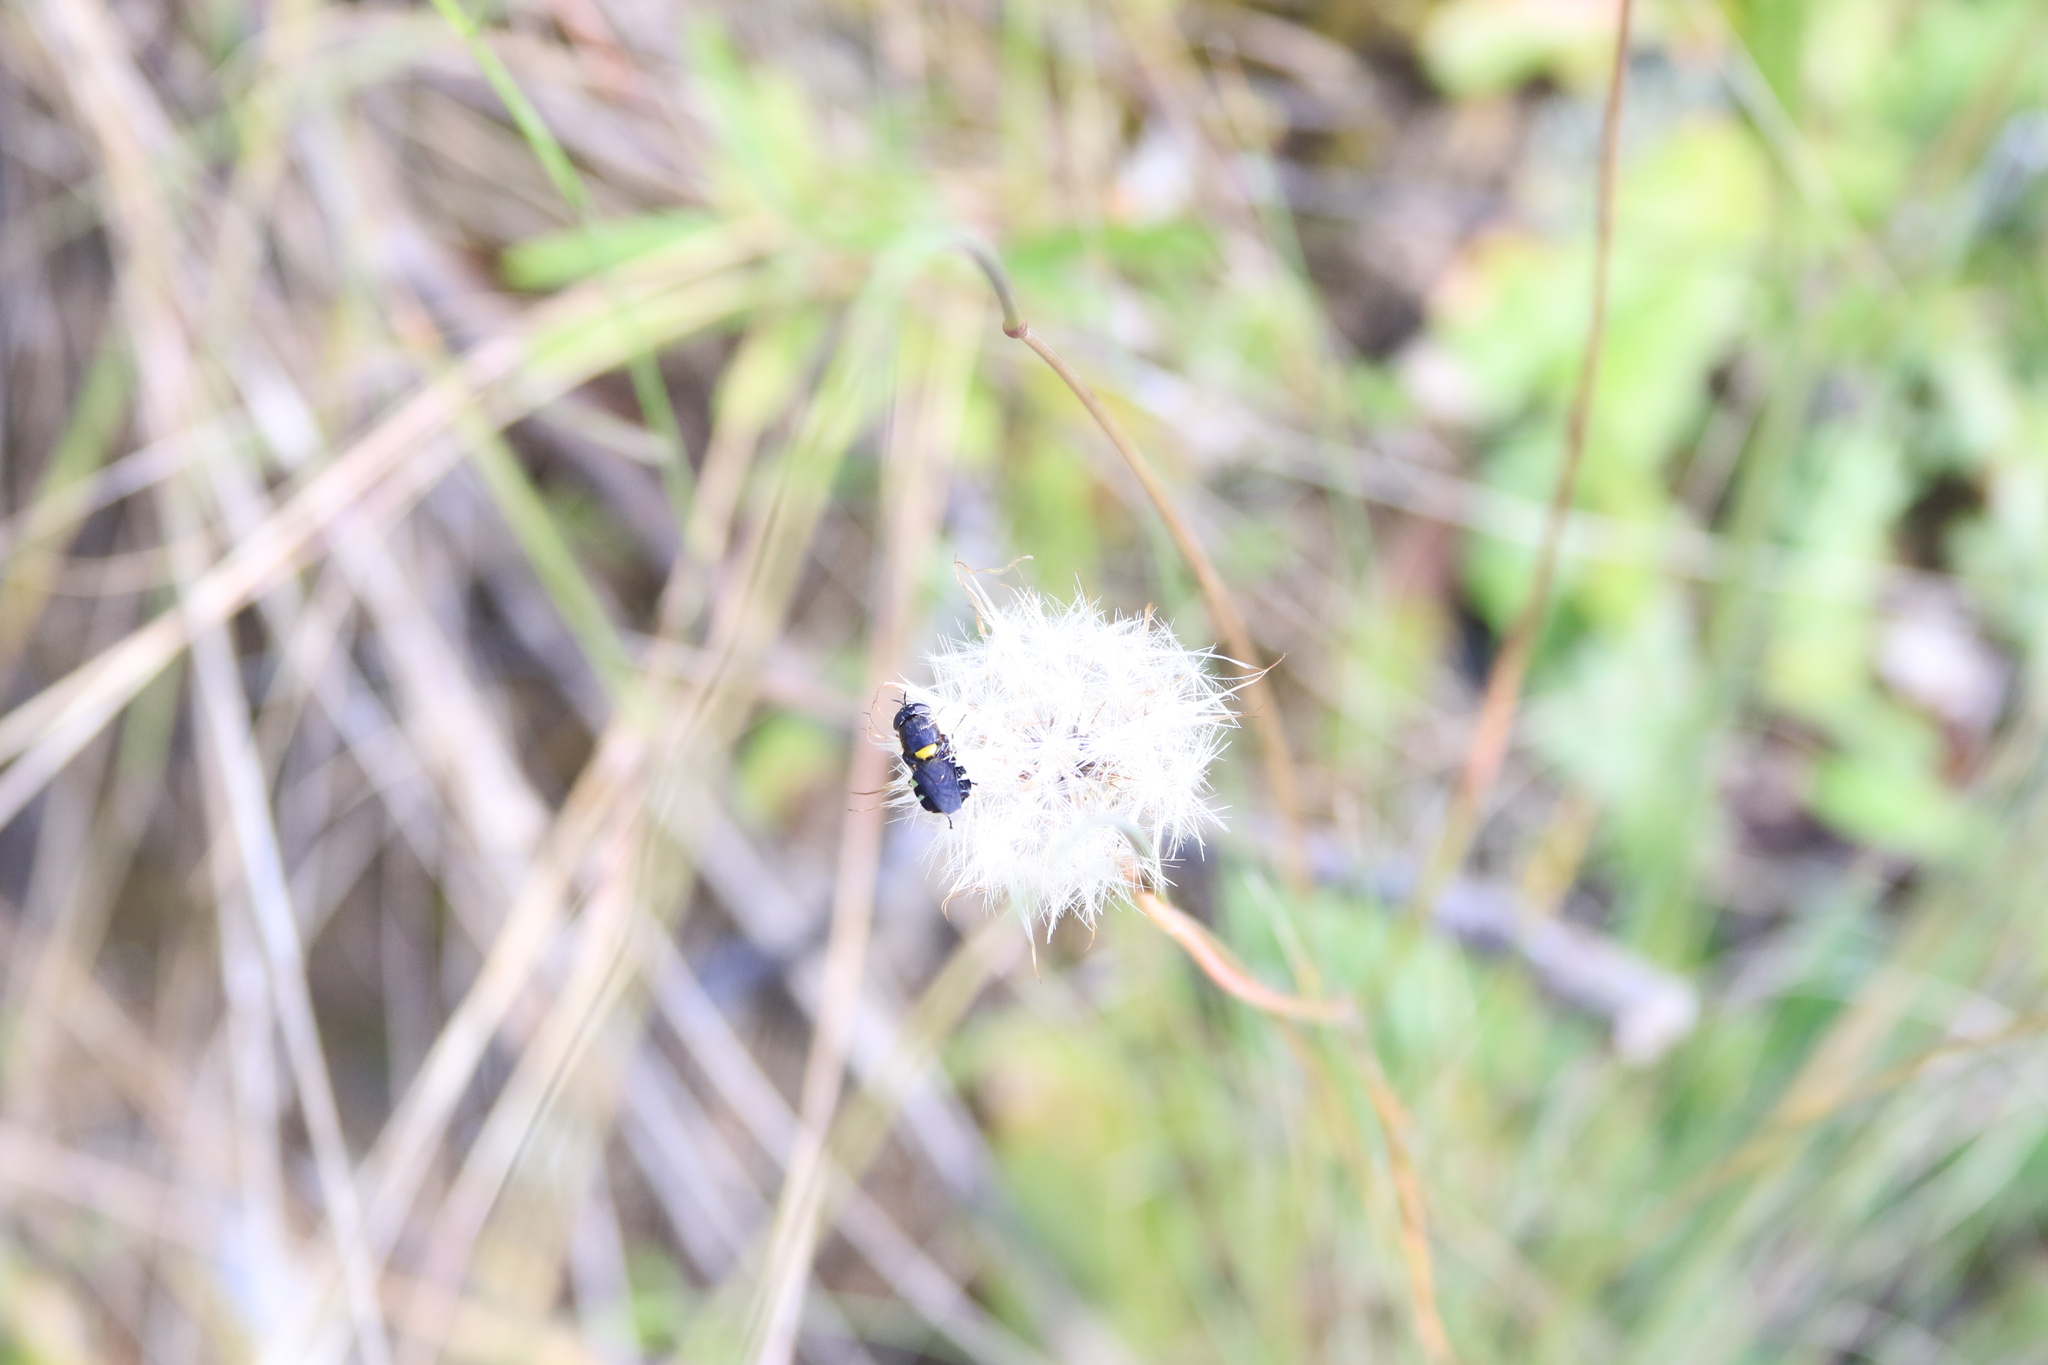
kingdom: Animalia
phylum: Arthropoda
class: Insecta
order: Diptera
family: Stratiomyidae
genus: Odontomyia
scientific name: Odontomyia hunteri
